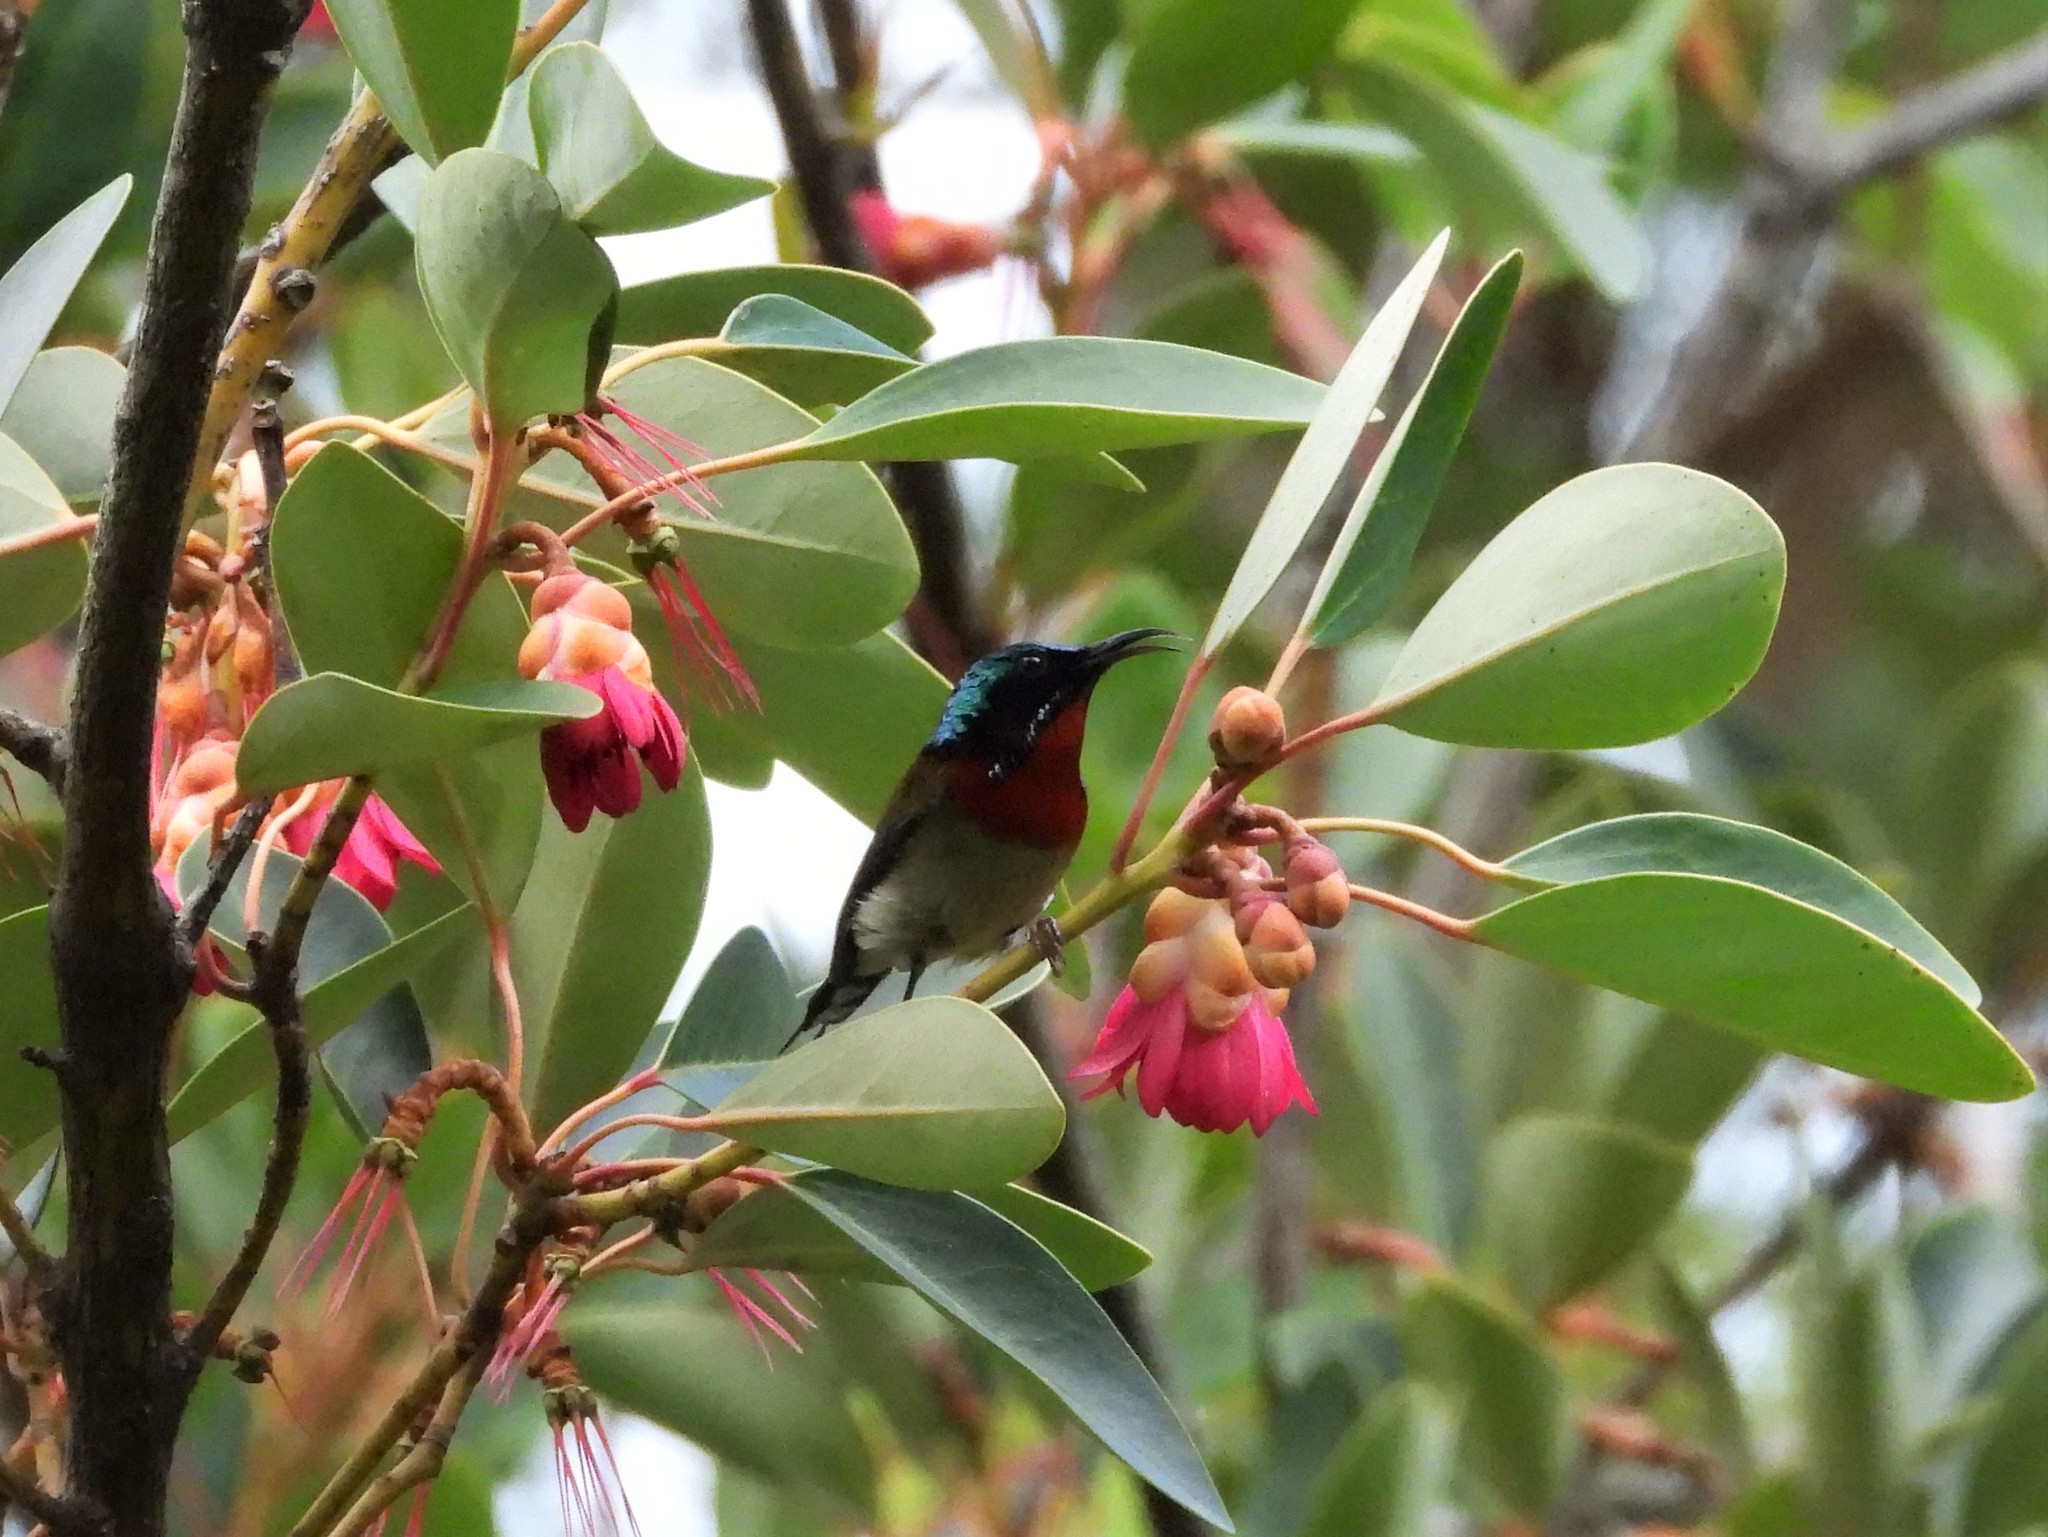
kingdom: Animalia
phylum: Chordata
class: Aves
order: Passeriformes
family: Nectariniidae
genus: Aethopyga
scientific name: Aethopyga christinae
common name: Fork-tailed sunbird
